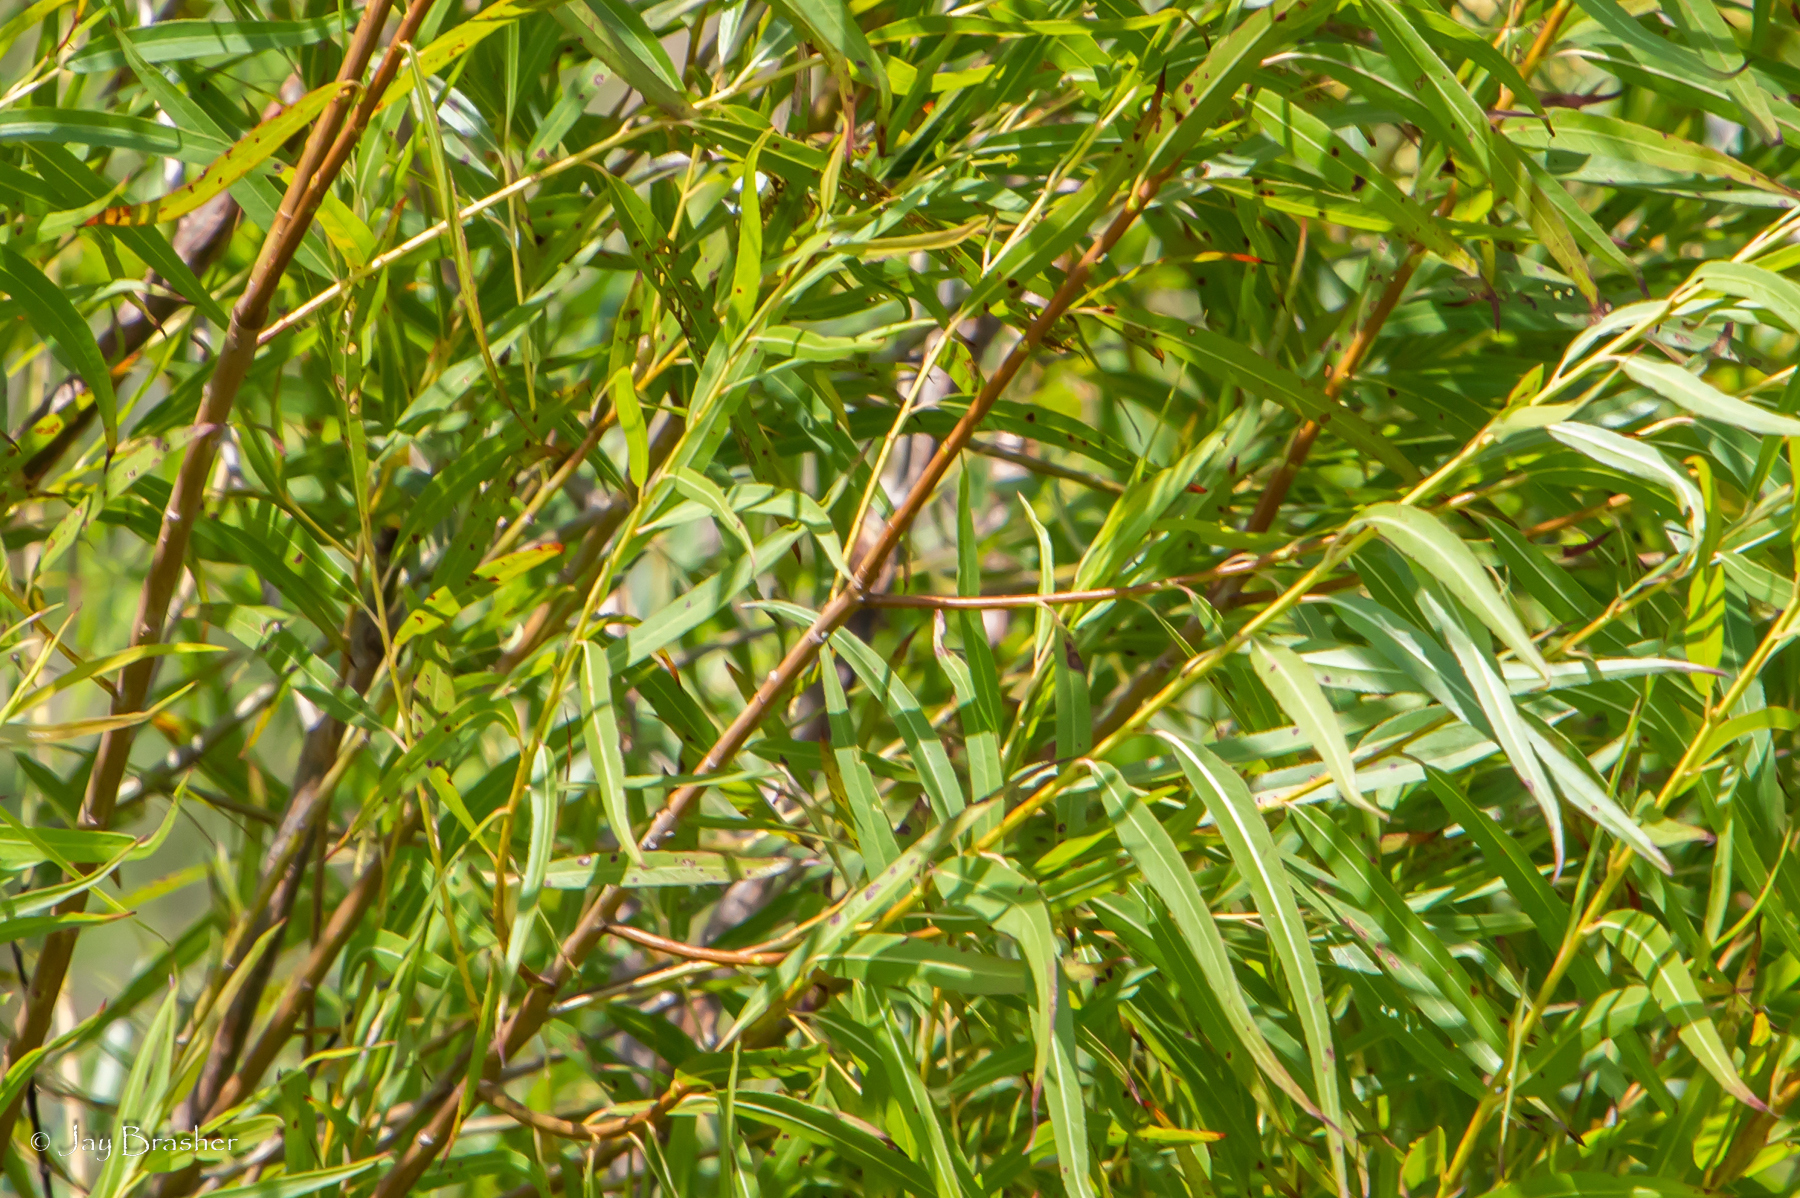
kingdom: Plantae
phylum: Tracheophyta
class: Magnoliopsida
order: Malpighiales
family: Salicaceae
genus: Salix
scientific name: Salix nigra
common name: Black willow
